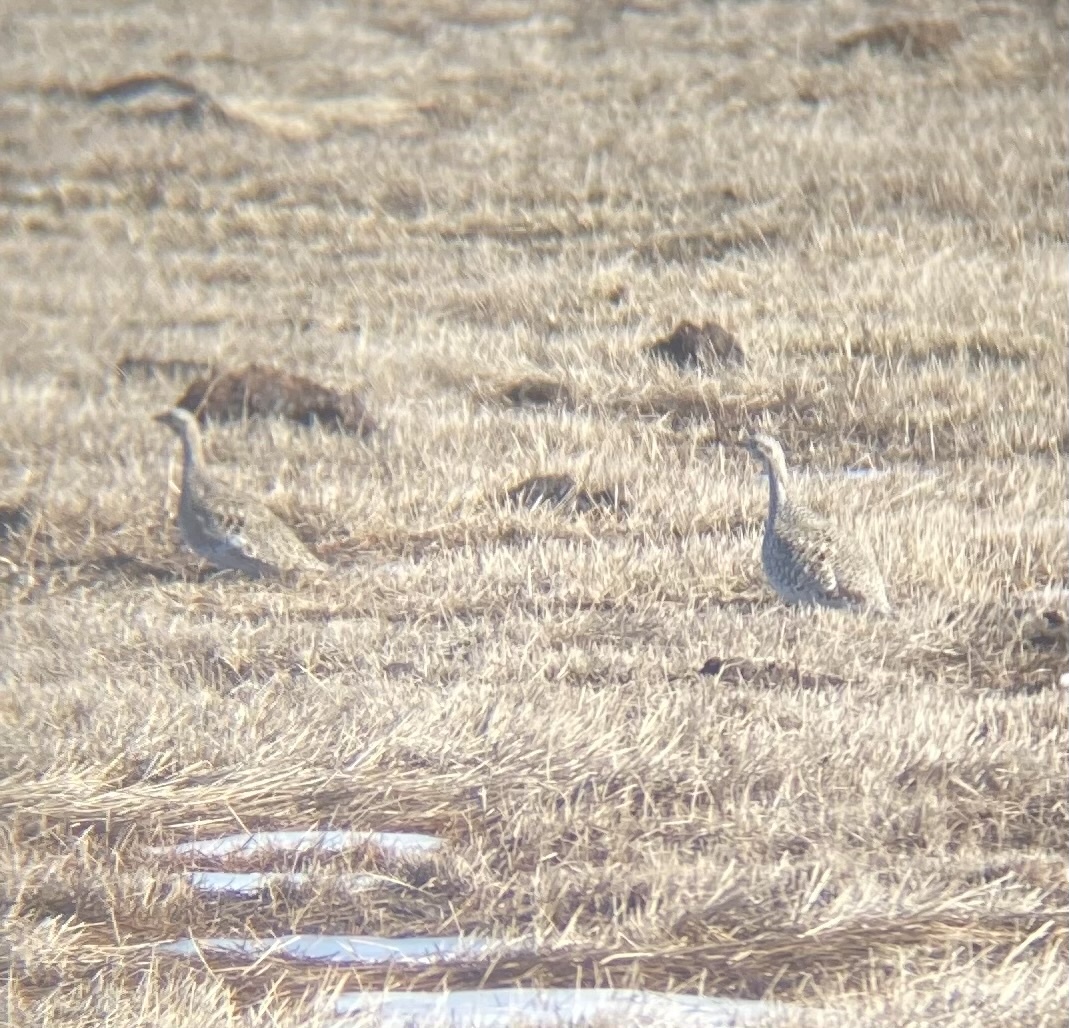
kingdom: Animalia
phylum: Chordata
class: Aves
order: Galliformes
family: Phasianidae
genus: Tympanuchus
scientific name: Tympanuchus phasianellus
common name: Sharp-tailed grouse
